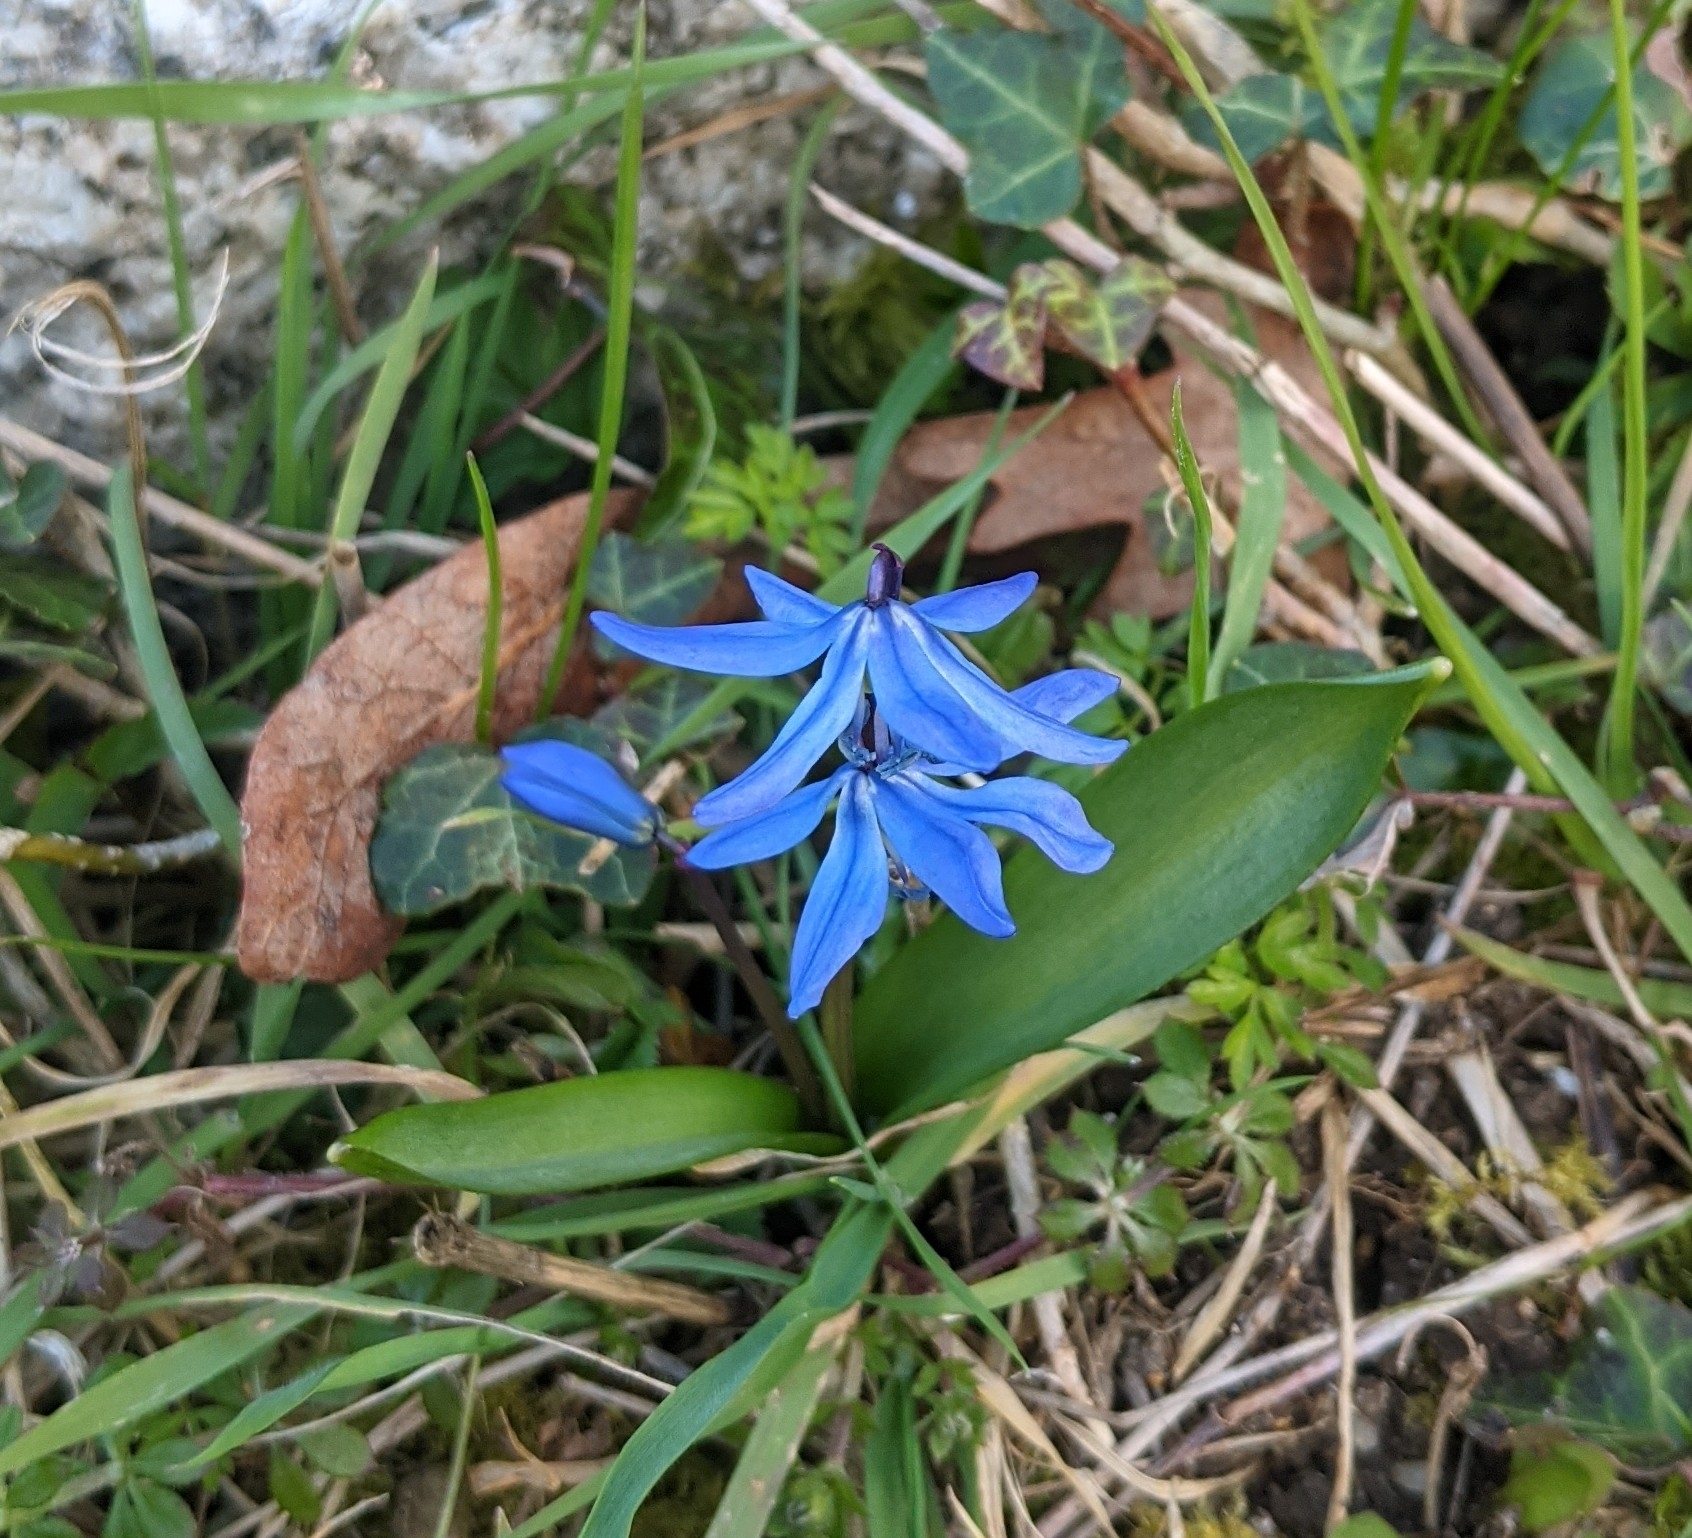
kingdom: Plantae
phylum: Tracheophyta
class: Liliopsida
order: Asparagales
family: Asparagaceae
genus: Scilla
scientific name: Scilla siberica
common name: Siberian squill
